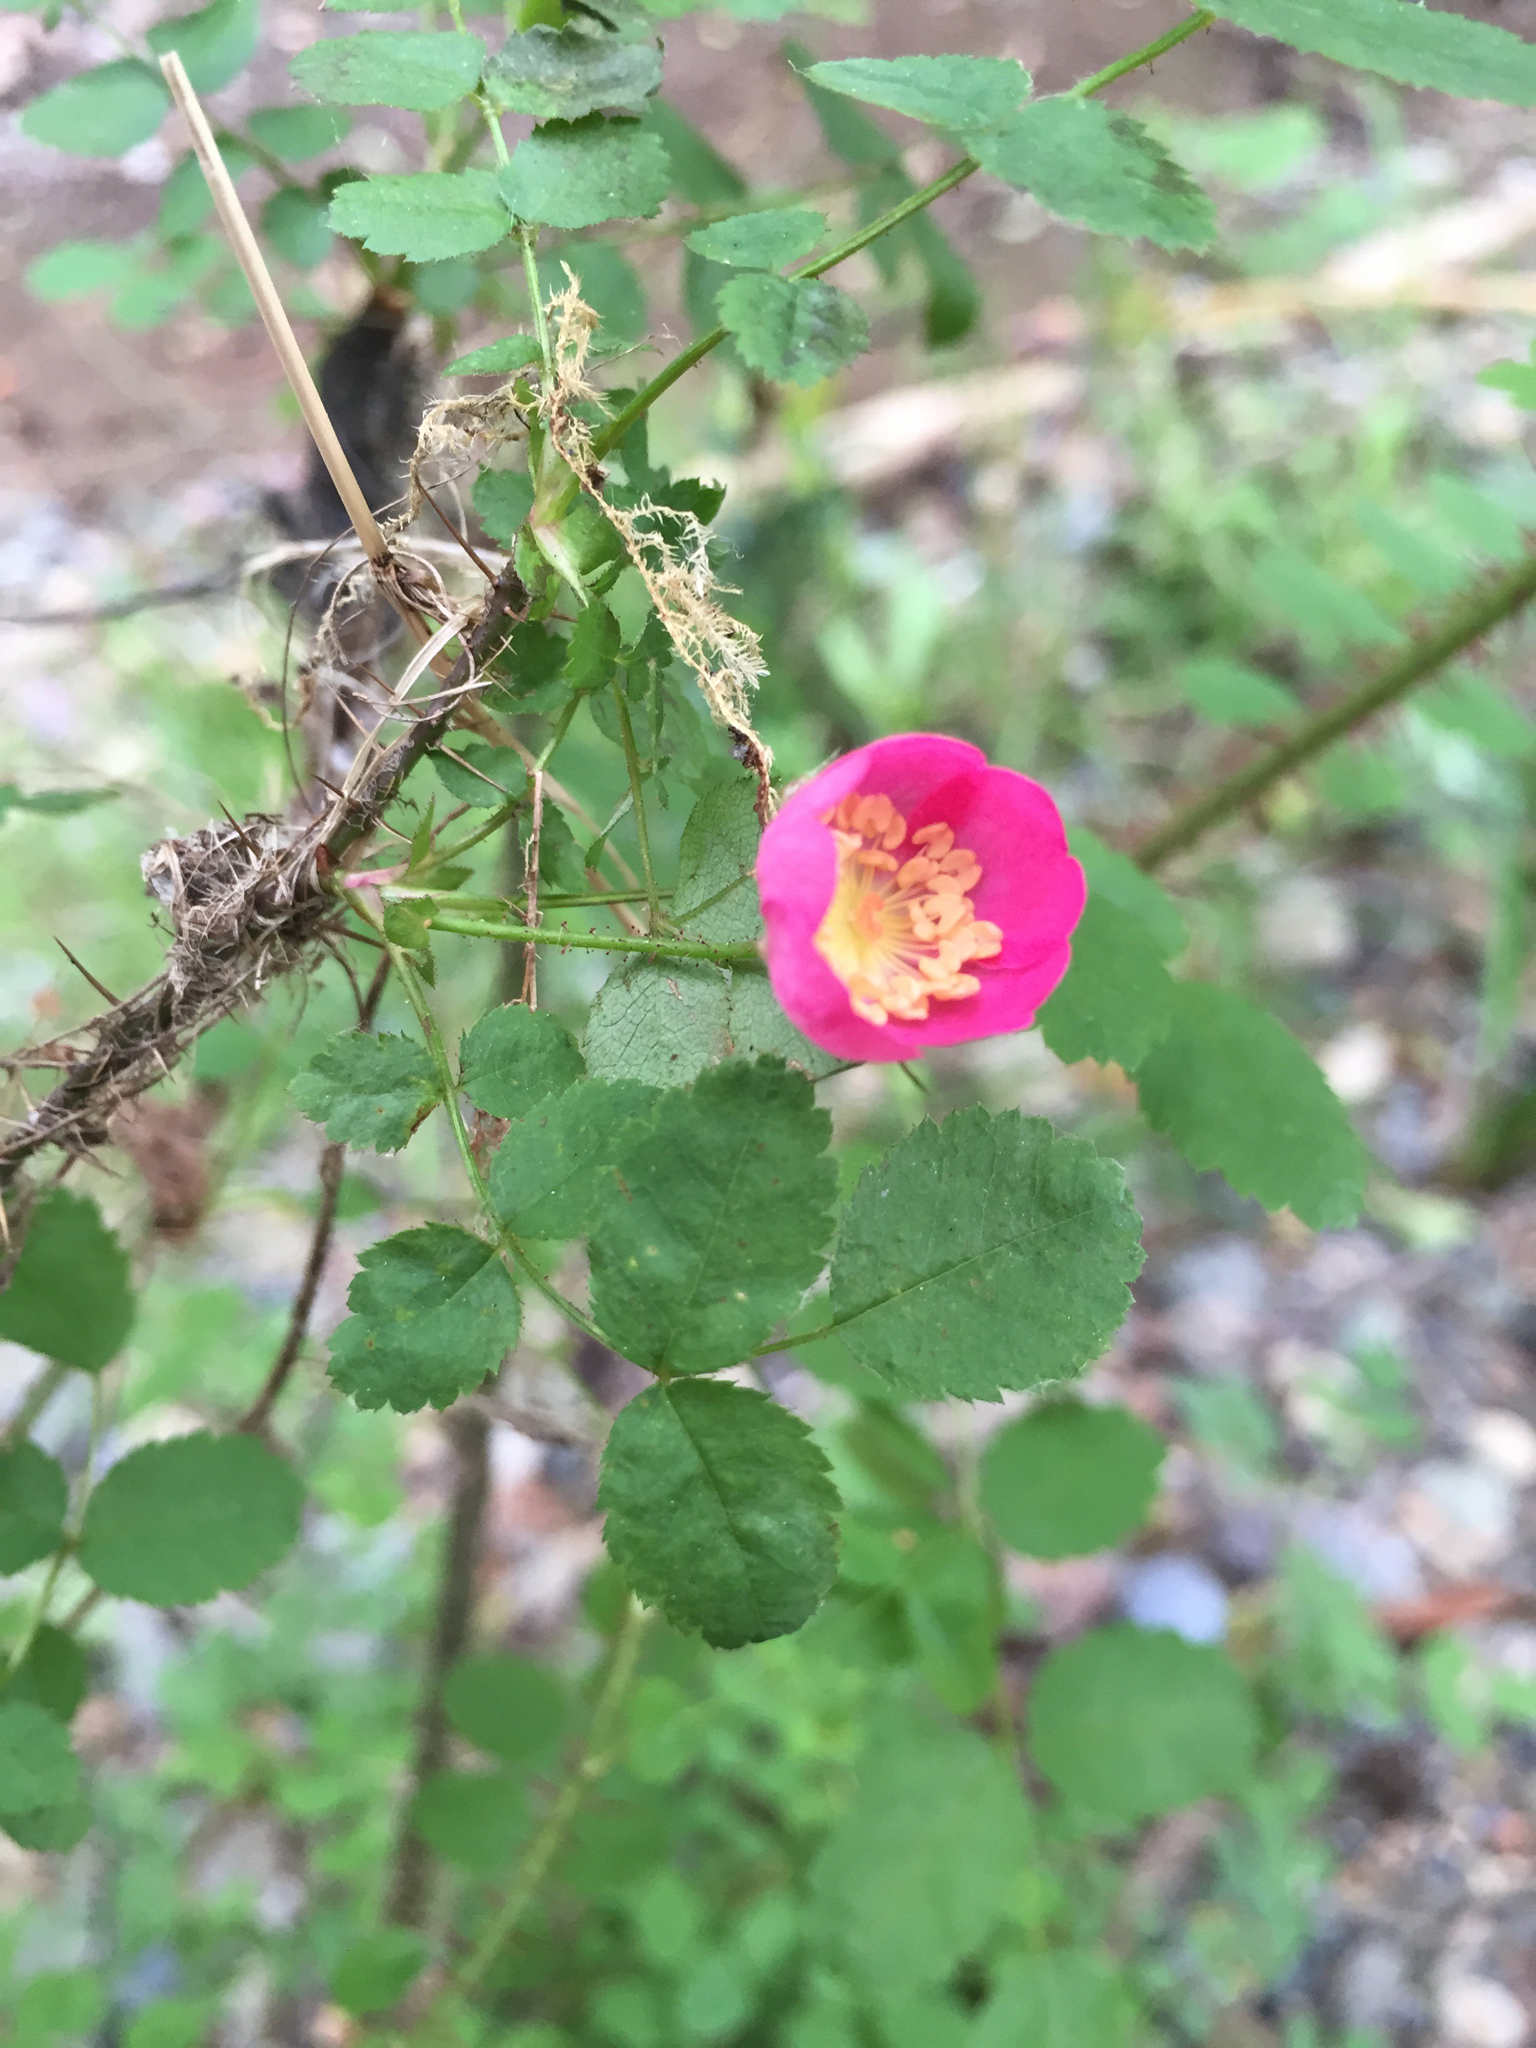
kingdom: Plantae
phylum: Tracheophyta
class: Magnoliopsida
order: Rosales
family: Rosaceae
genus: Rosa
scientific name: Rosa gymnocarpa
